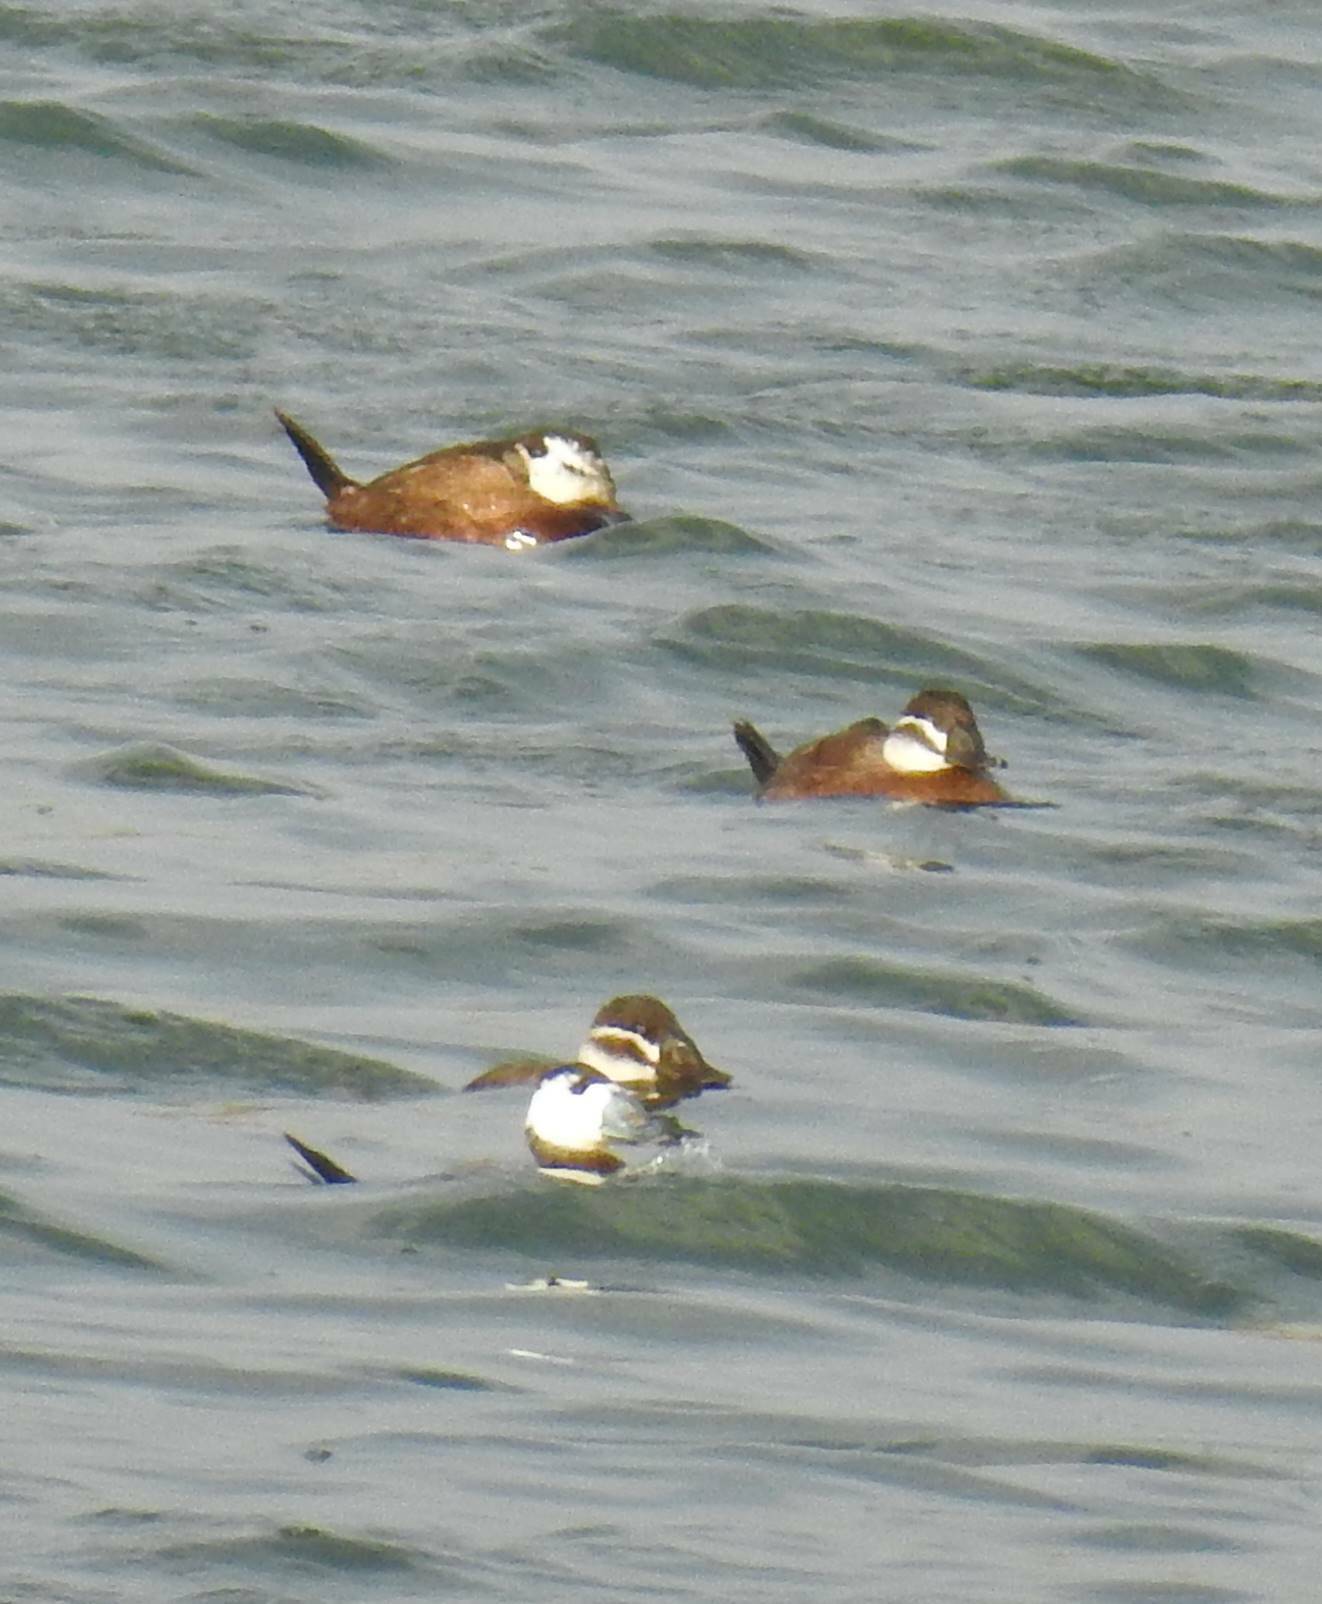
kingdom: Animalia
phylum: Chordata
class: Aves
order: Anseriformes
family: Anatidae
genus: Oxyura
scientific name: Oxyura leucocephala
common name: White-headed duck
